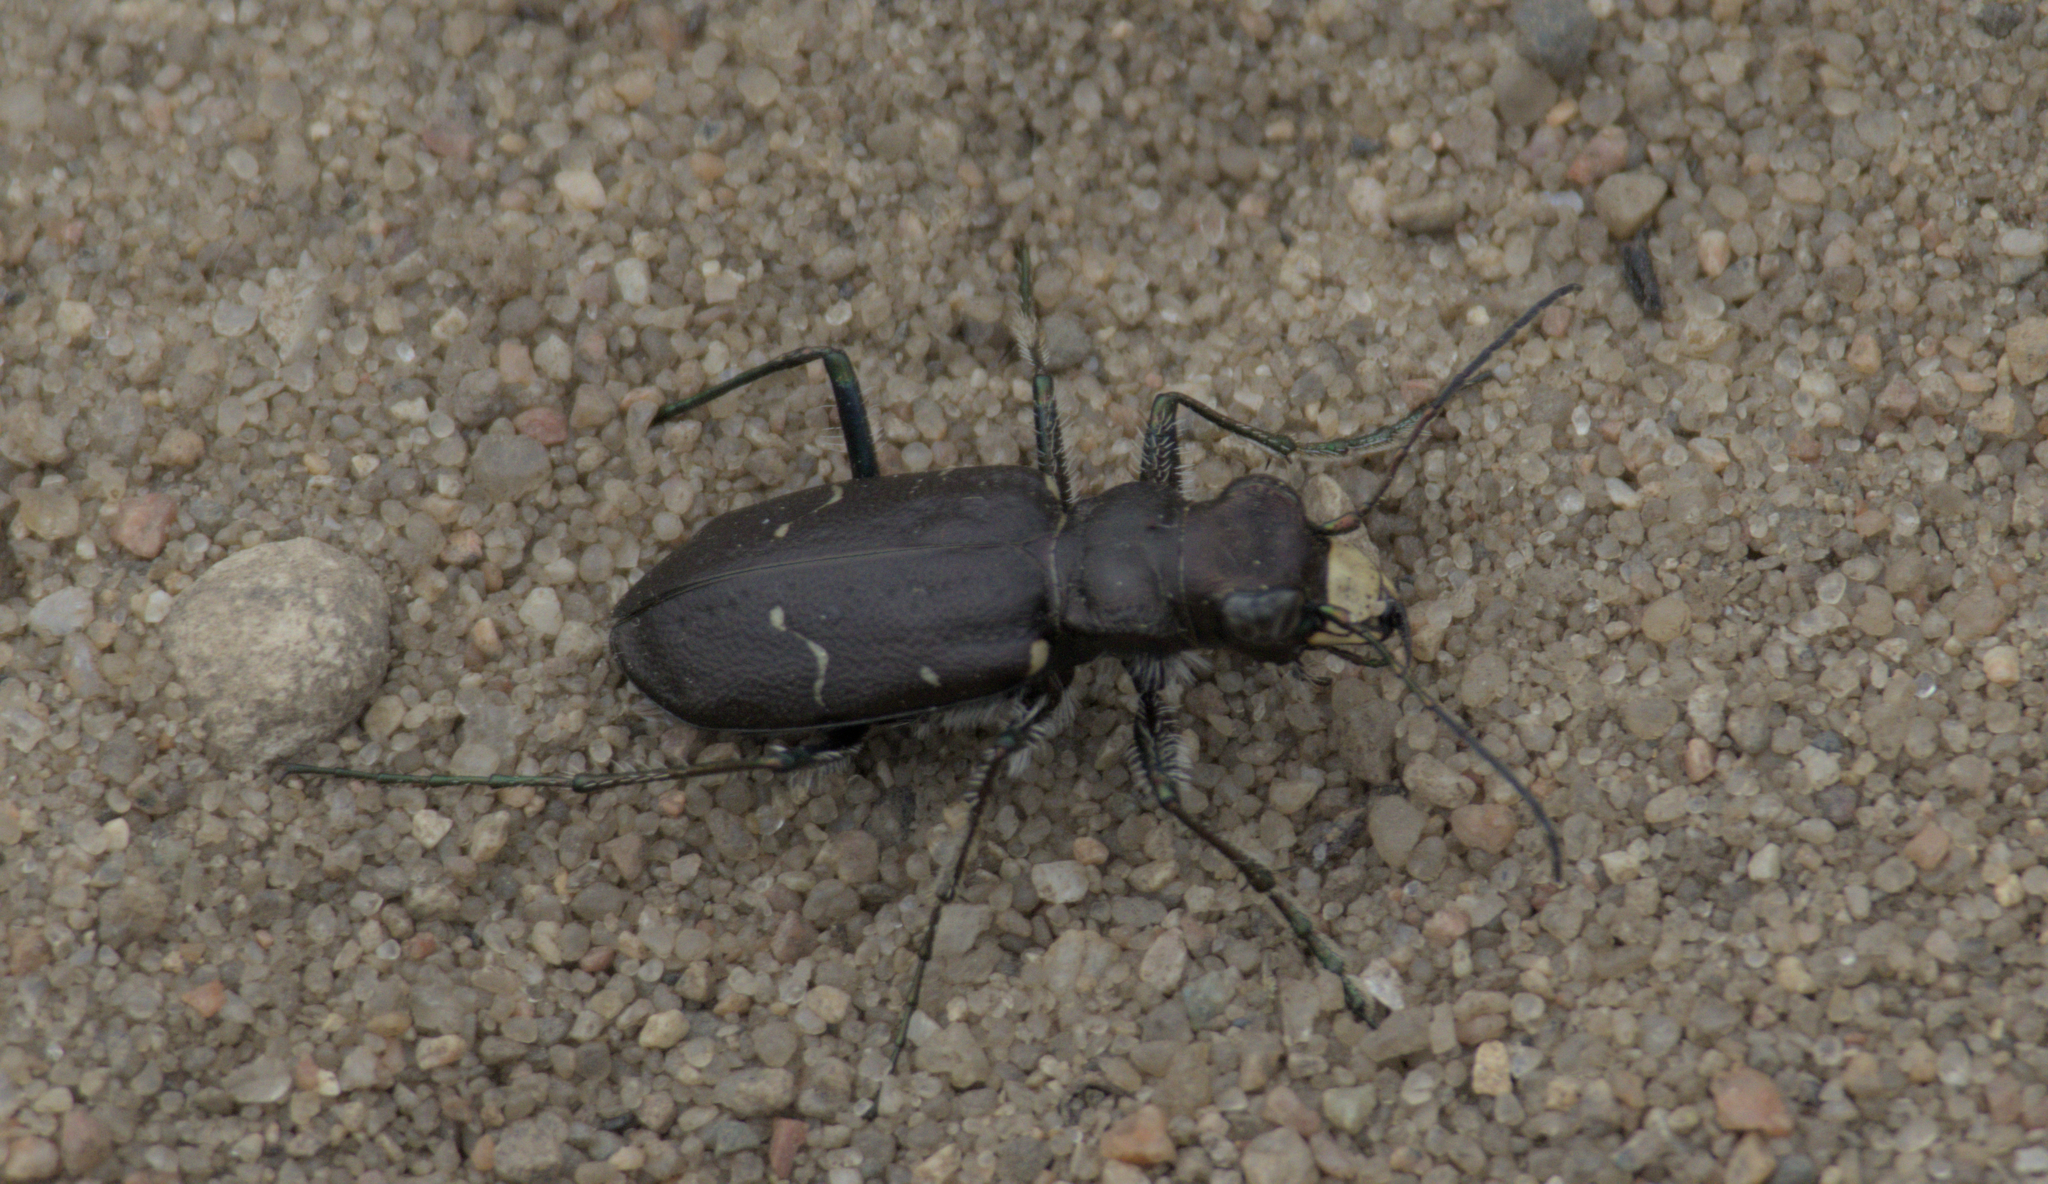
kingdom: Animalia
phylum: Arthropoda
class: Insecta
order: Coleoptera
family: Carabidae
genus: Cicindela
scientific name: Cicindela longilabris
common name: Boreal long-lipped tiger beetle
